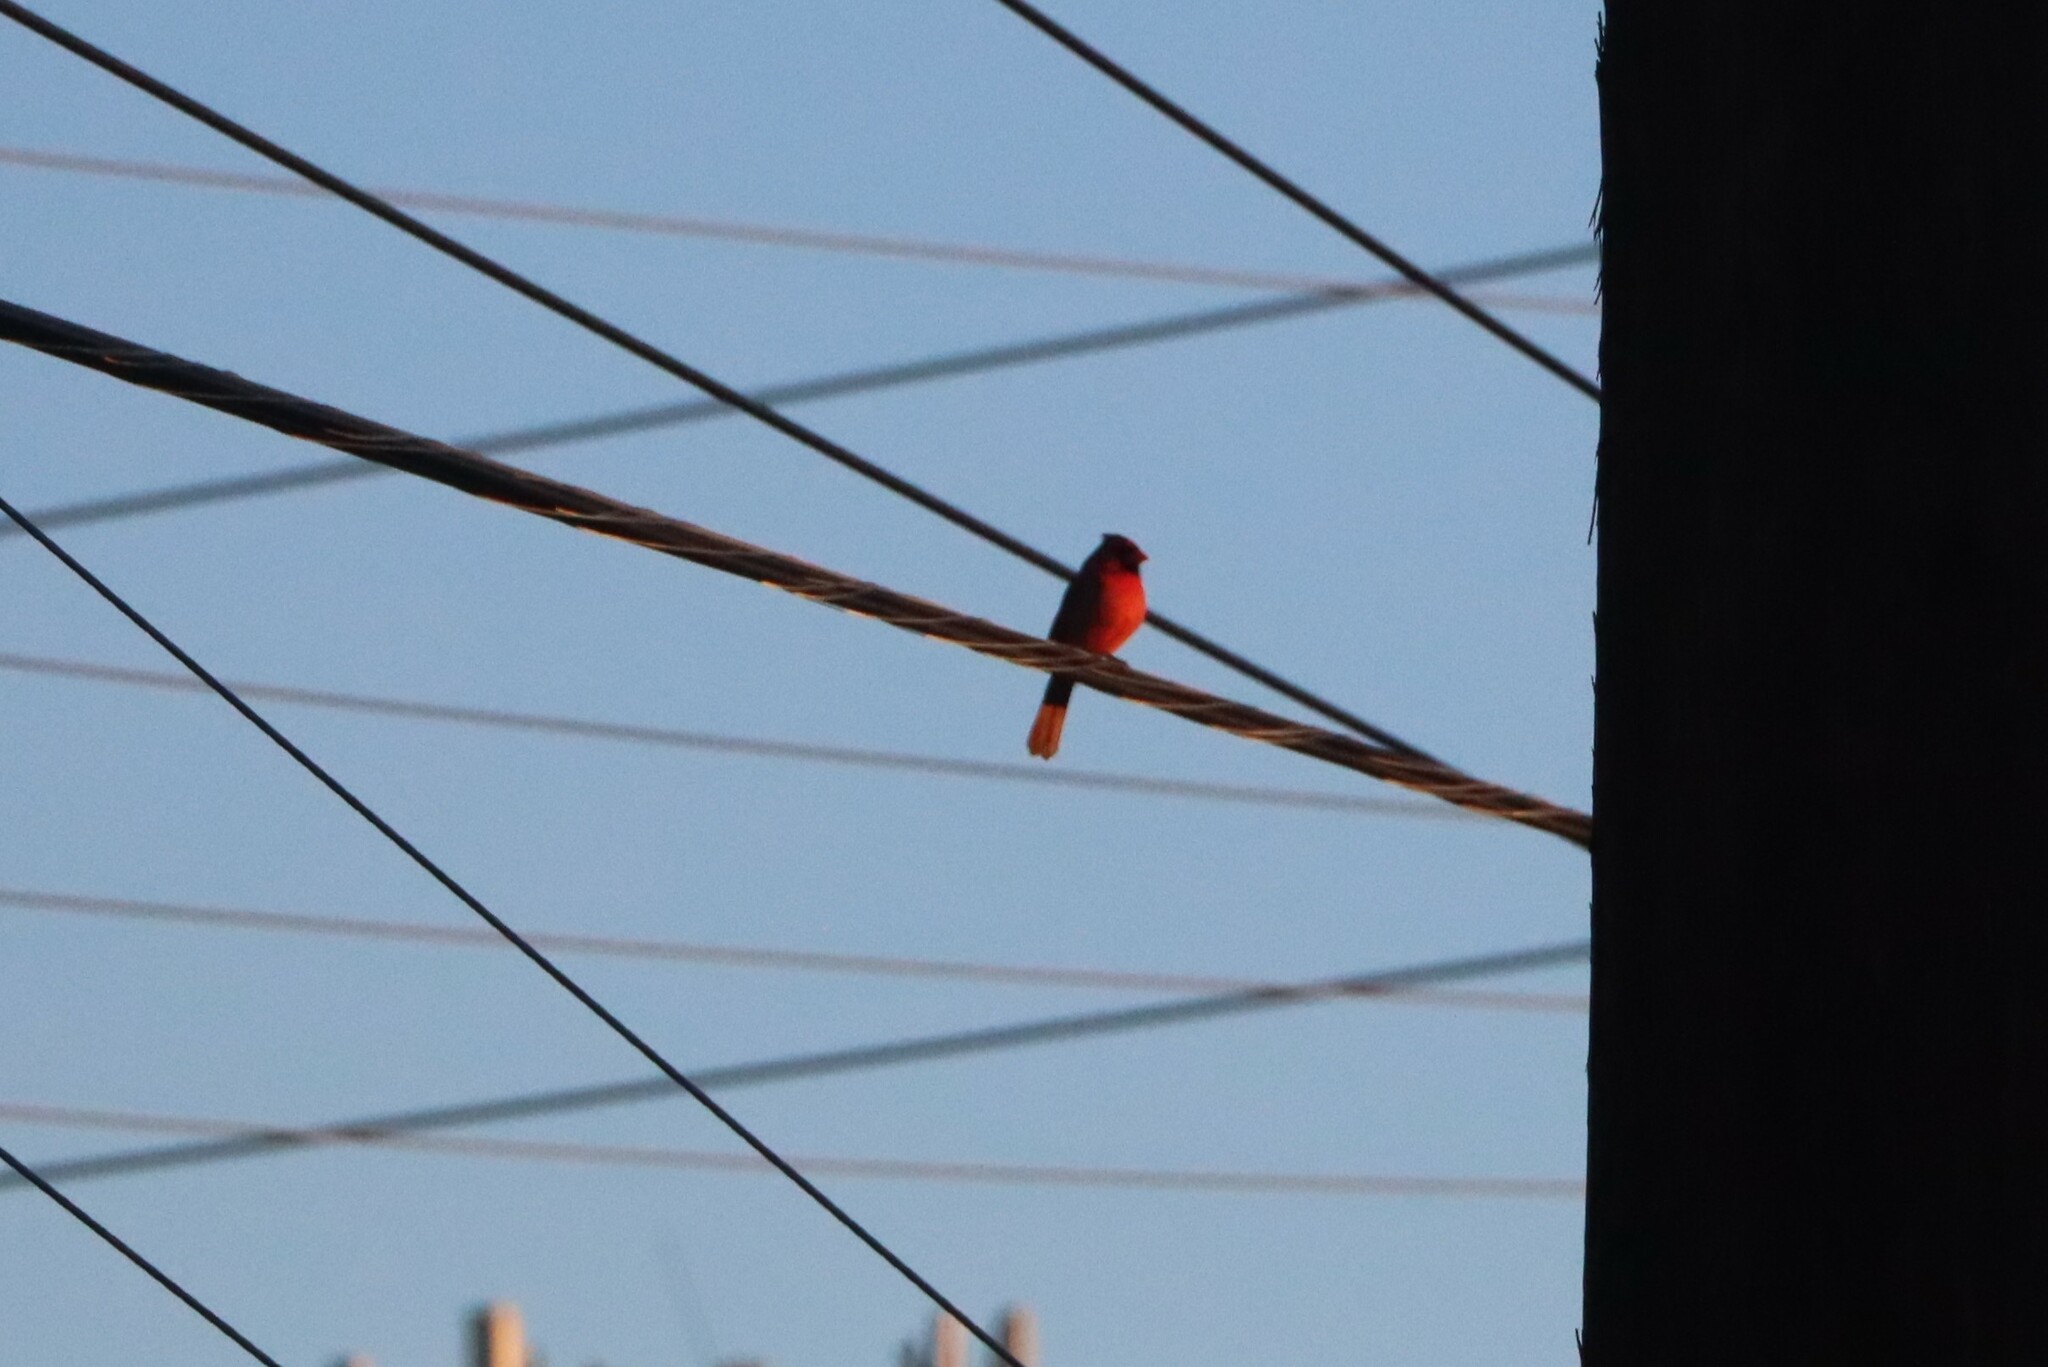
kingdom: Animalia
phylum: Chordata
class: Aves
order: Passeriformes
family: Cardinalidae
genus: Cardinalis
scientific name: Cardinalis cardinalis
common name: Northern cardinal
